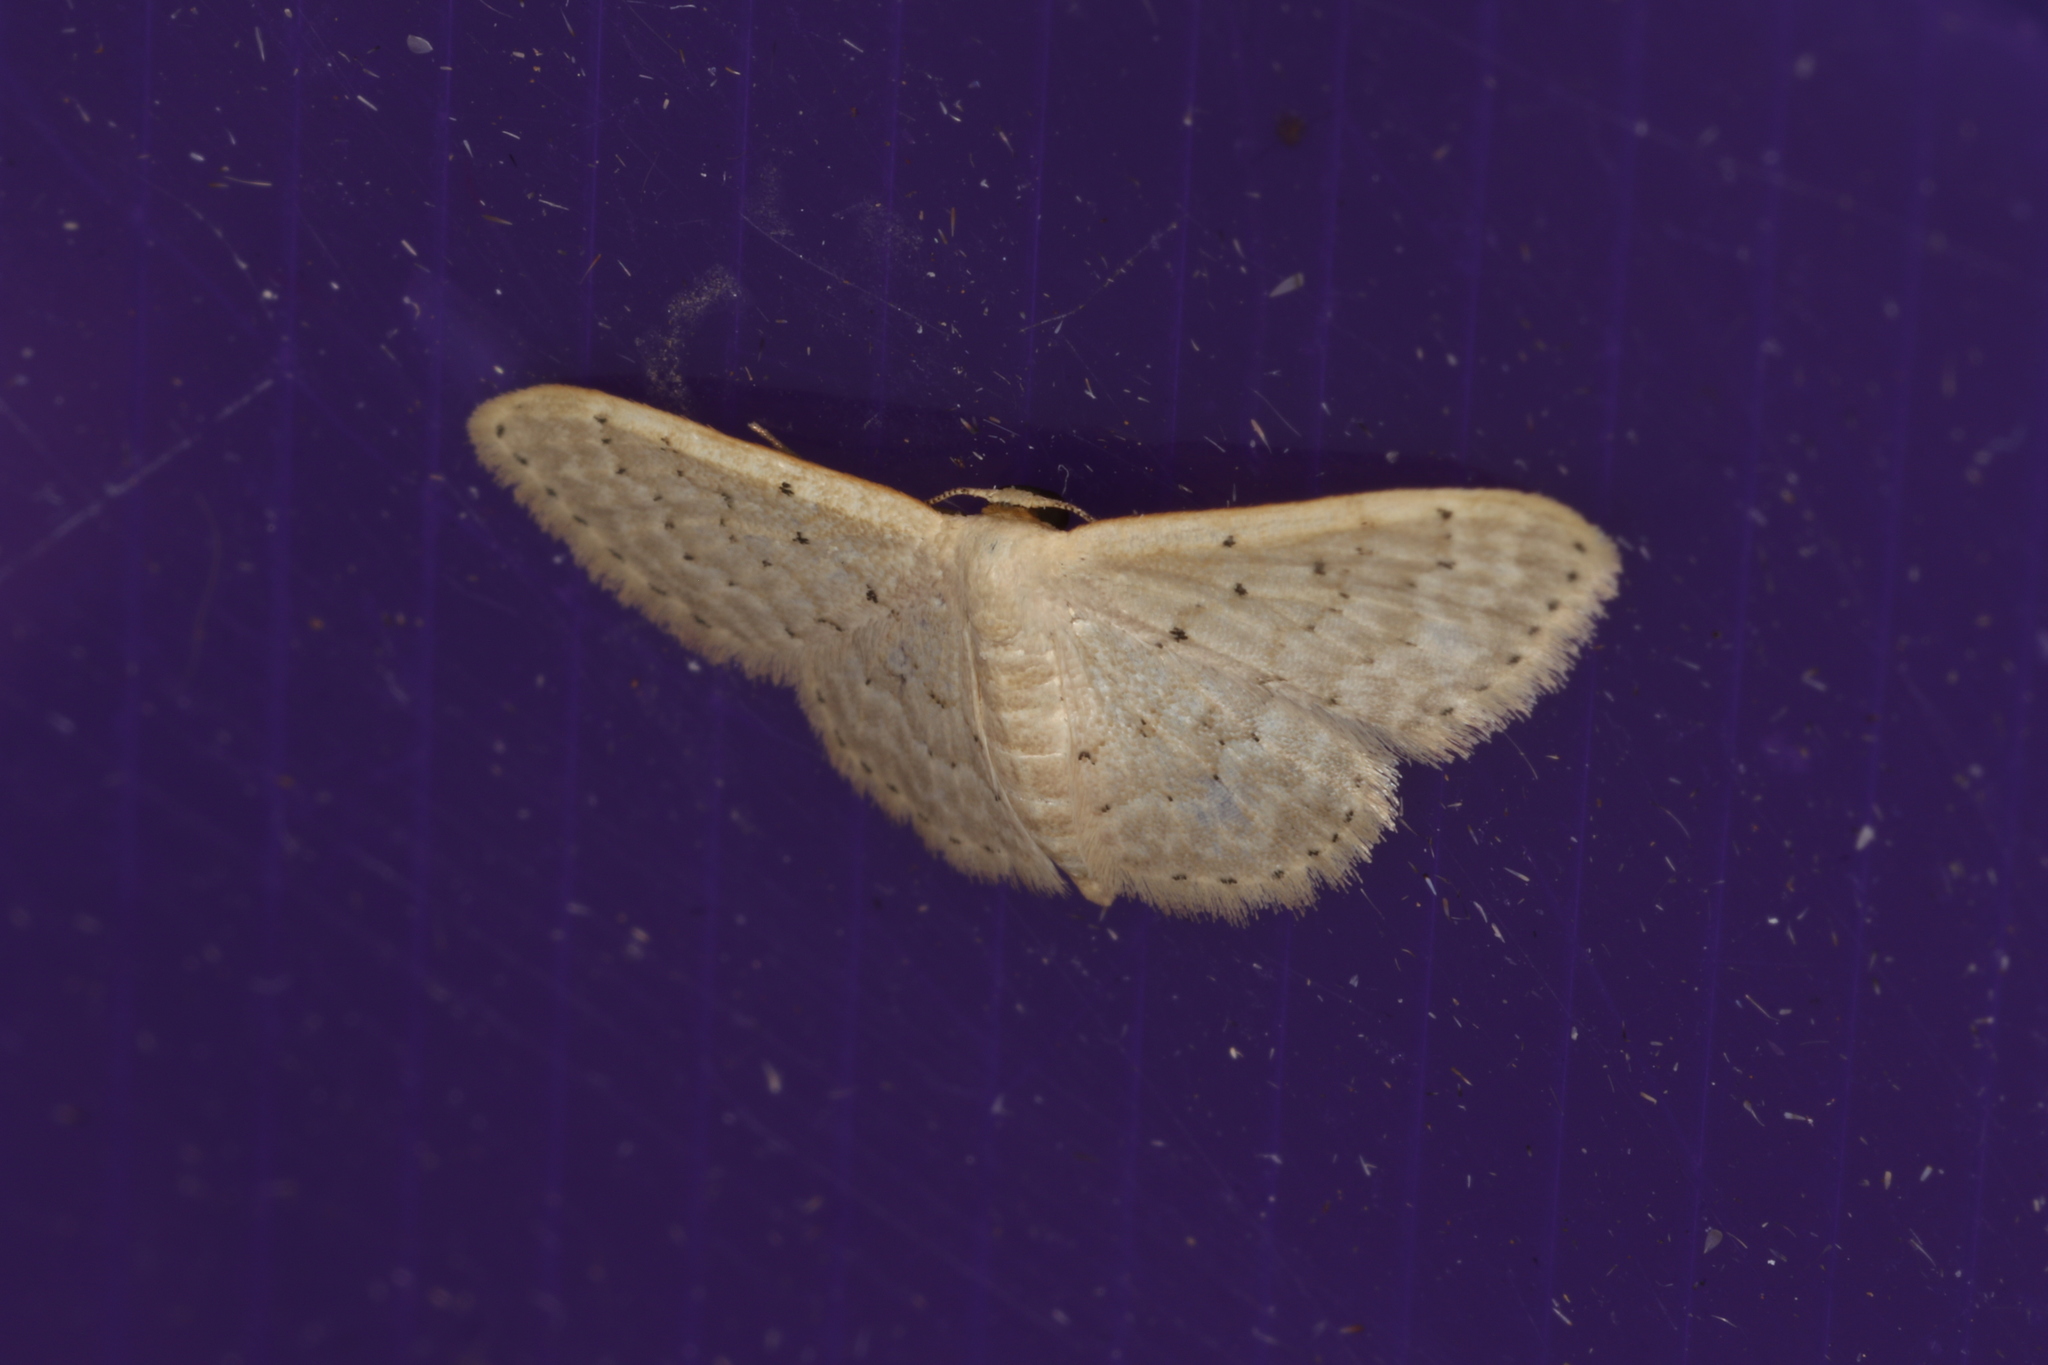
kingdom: Animalia
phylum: Arthropoda
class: Insecta
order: Lepidoptera
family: Geometridae
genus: Idaea
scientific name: Idaea philocosma
